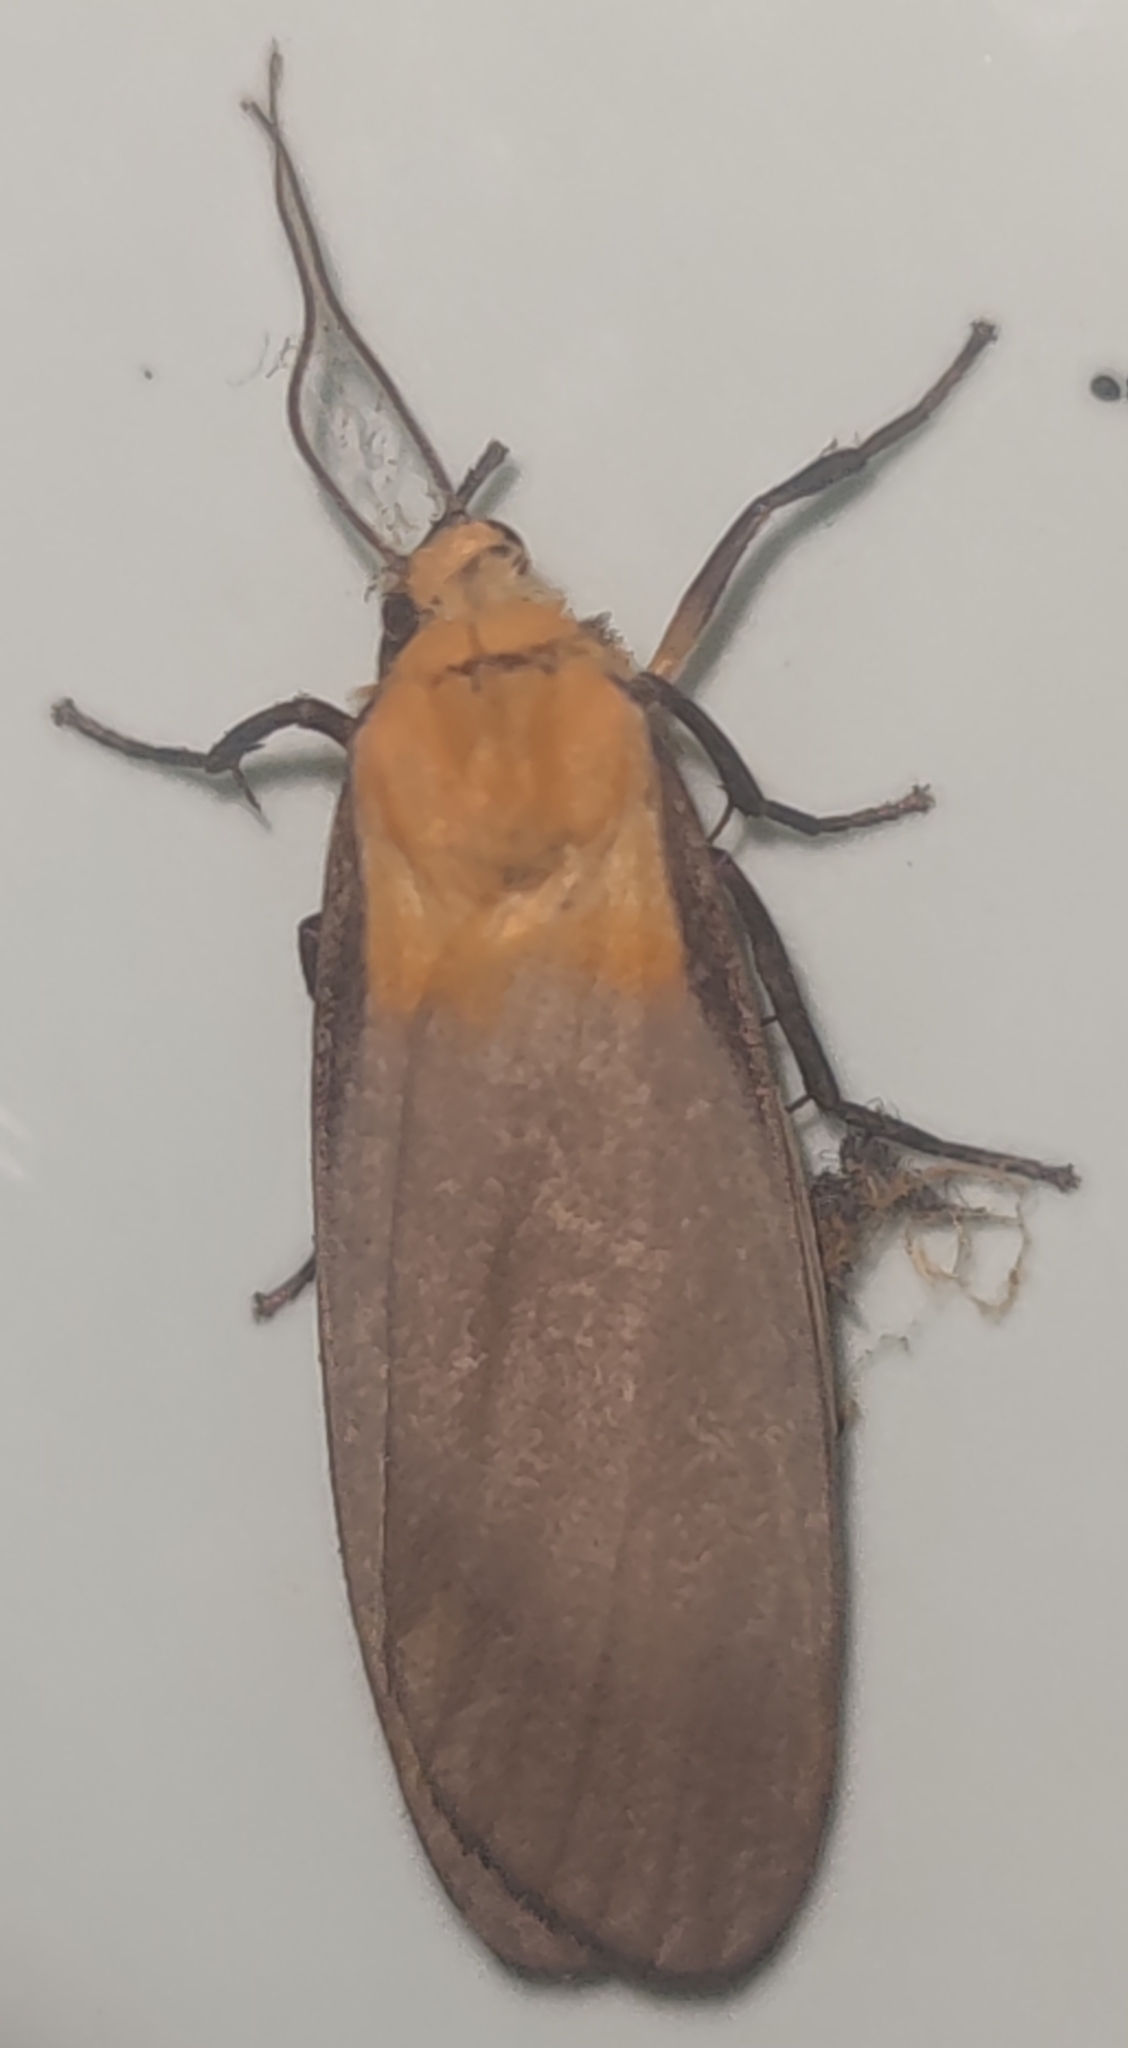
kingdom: Animalia
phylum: Arthropoda
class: Insecta
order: Lepidoptera
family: Erebidae
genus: Lithosia
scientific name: Lithosia quadra
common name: Four-spotted footman
